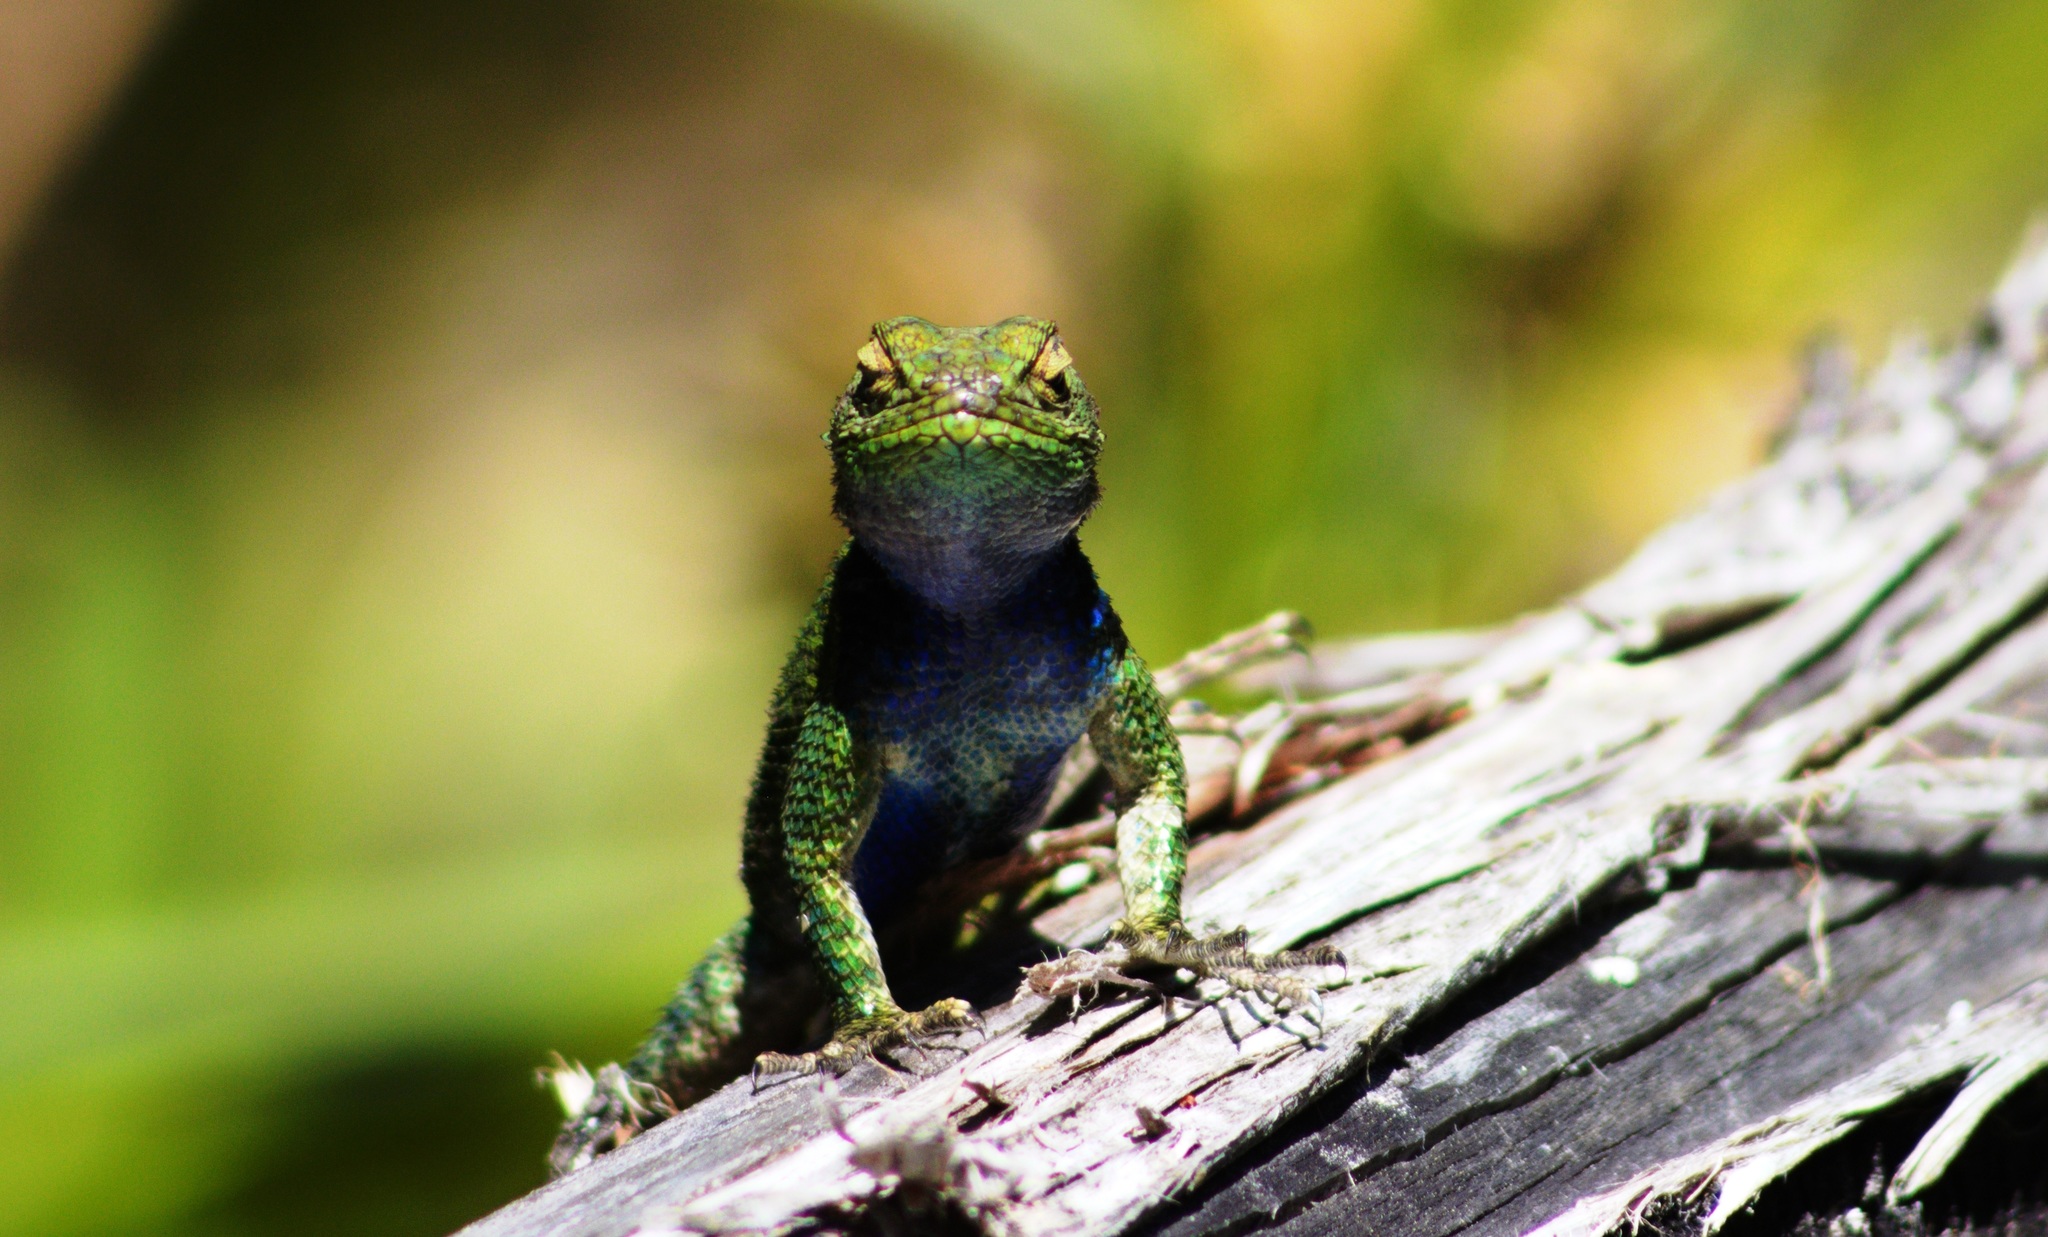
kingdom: Animalia
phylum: Chordata
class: Squamata
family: Phrynosomatidae
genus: Sceloporus
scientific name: Sceloporus taeniocnemis
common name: Guatemalan emerald spiny lizard
